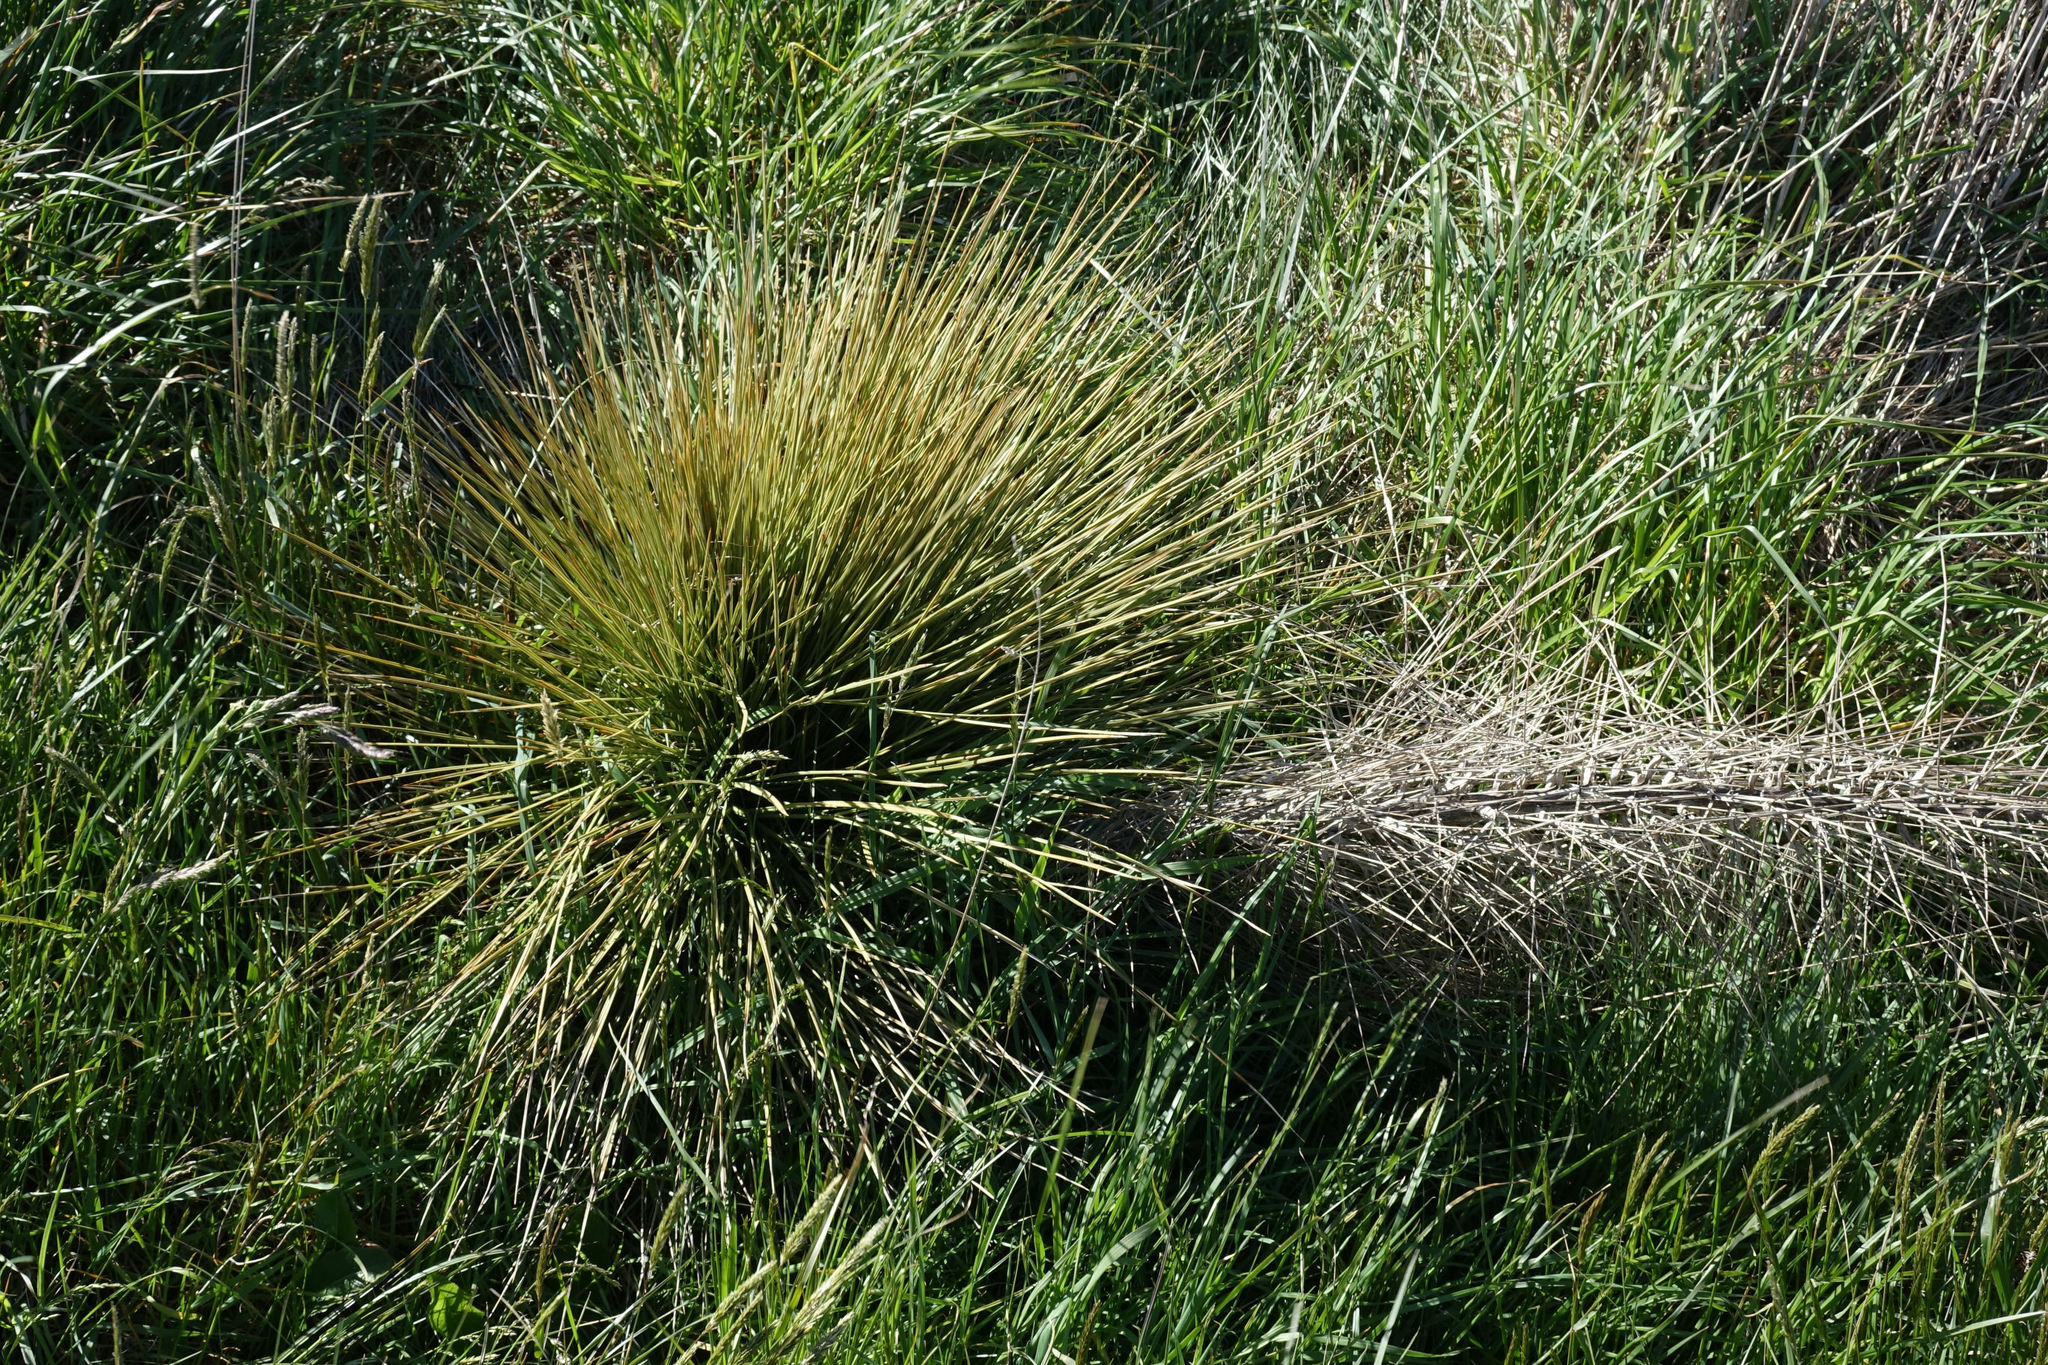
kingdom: Plantae
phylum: Tracheophyta
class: Magnoliopsida
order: Apiales
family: Apiaceae
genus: Aciphylla
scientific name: Aciphylla subflabellata
